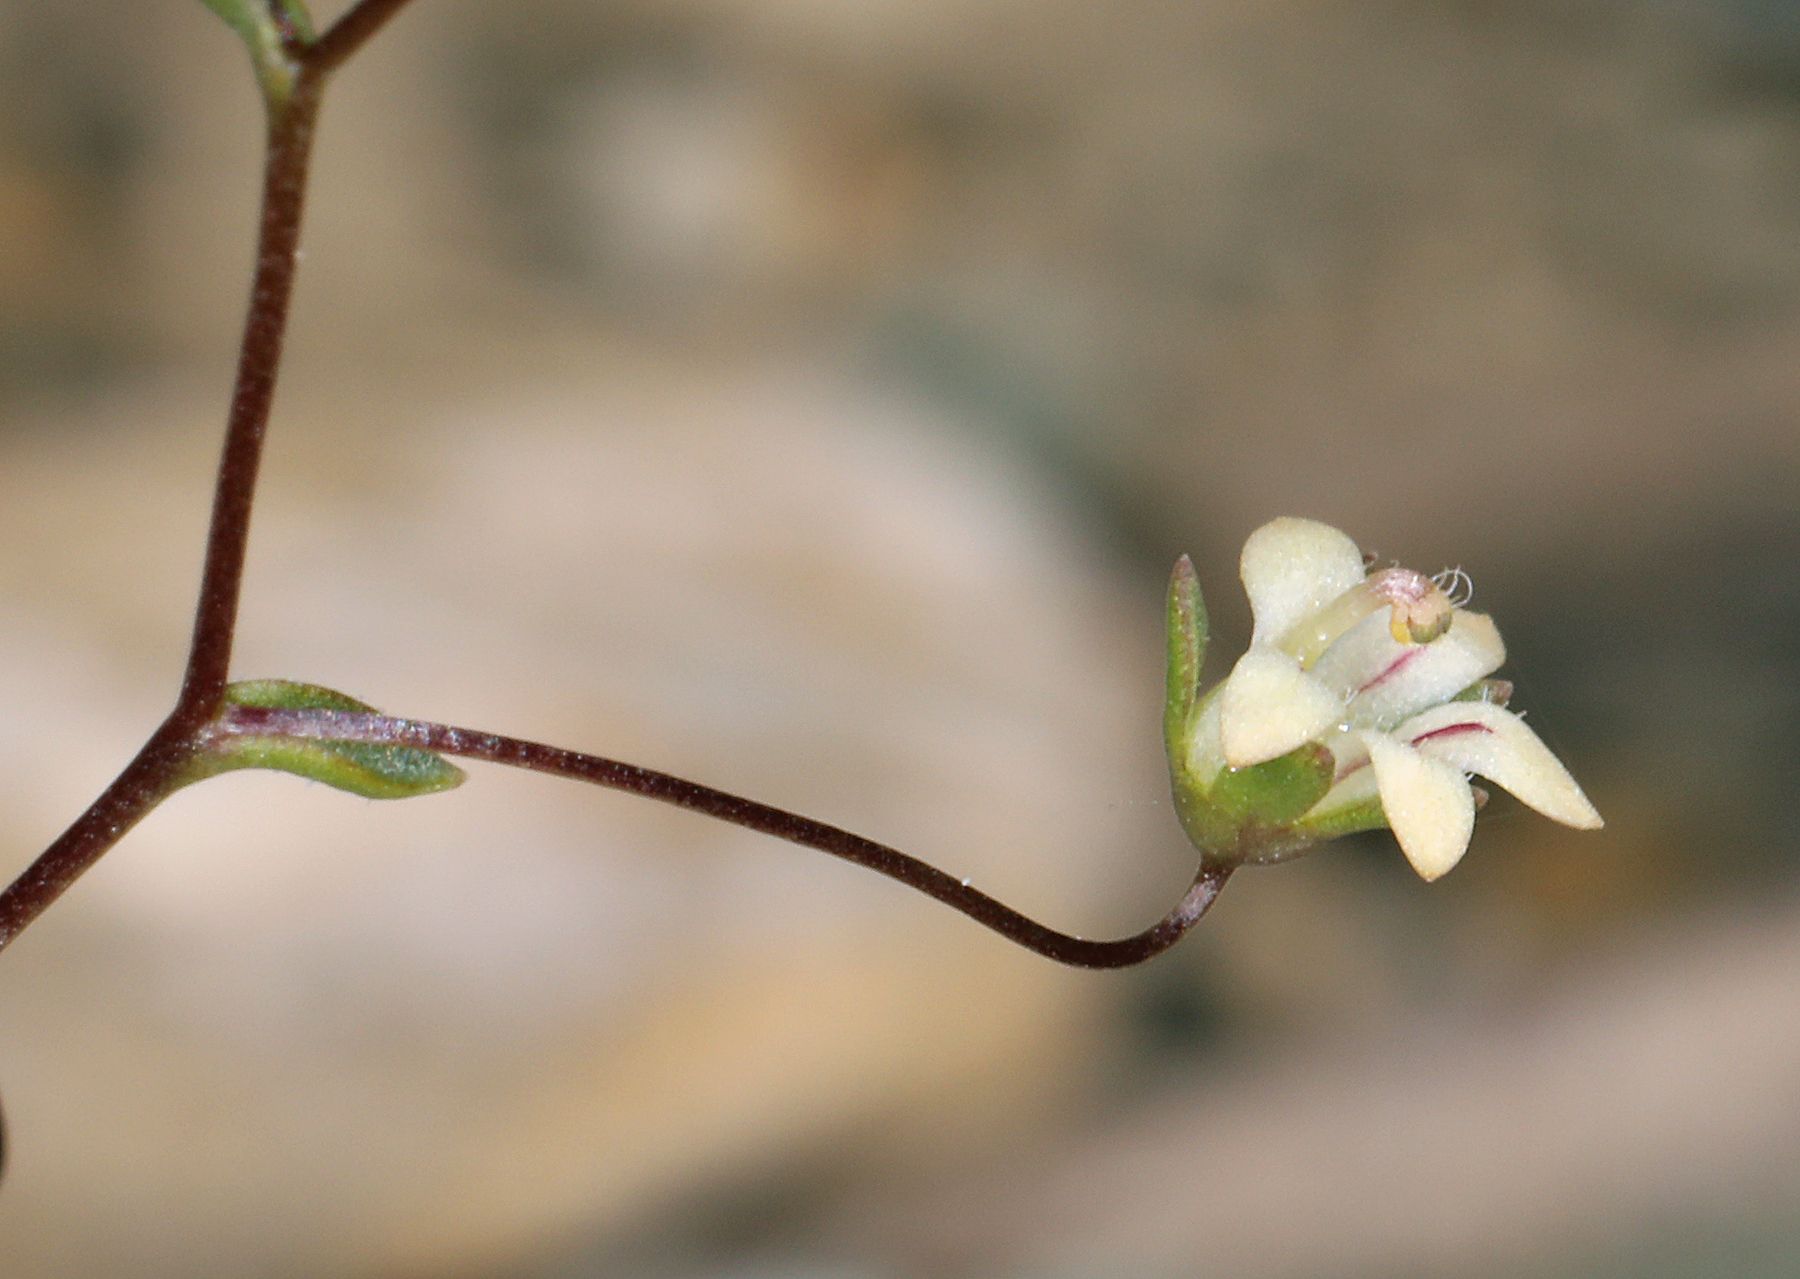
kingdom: Plantae
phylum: Tracheophyta
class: Magnoliopsida
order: Asterales
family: Campanulaceae
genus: Nemacladus
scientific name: Nemacladus inyoensis
